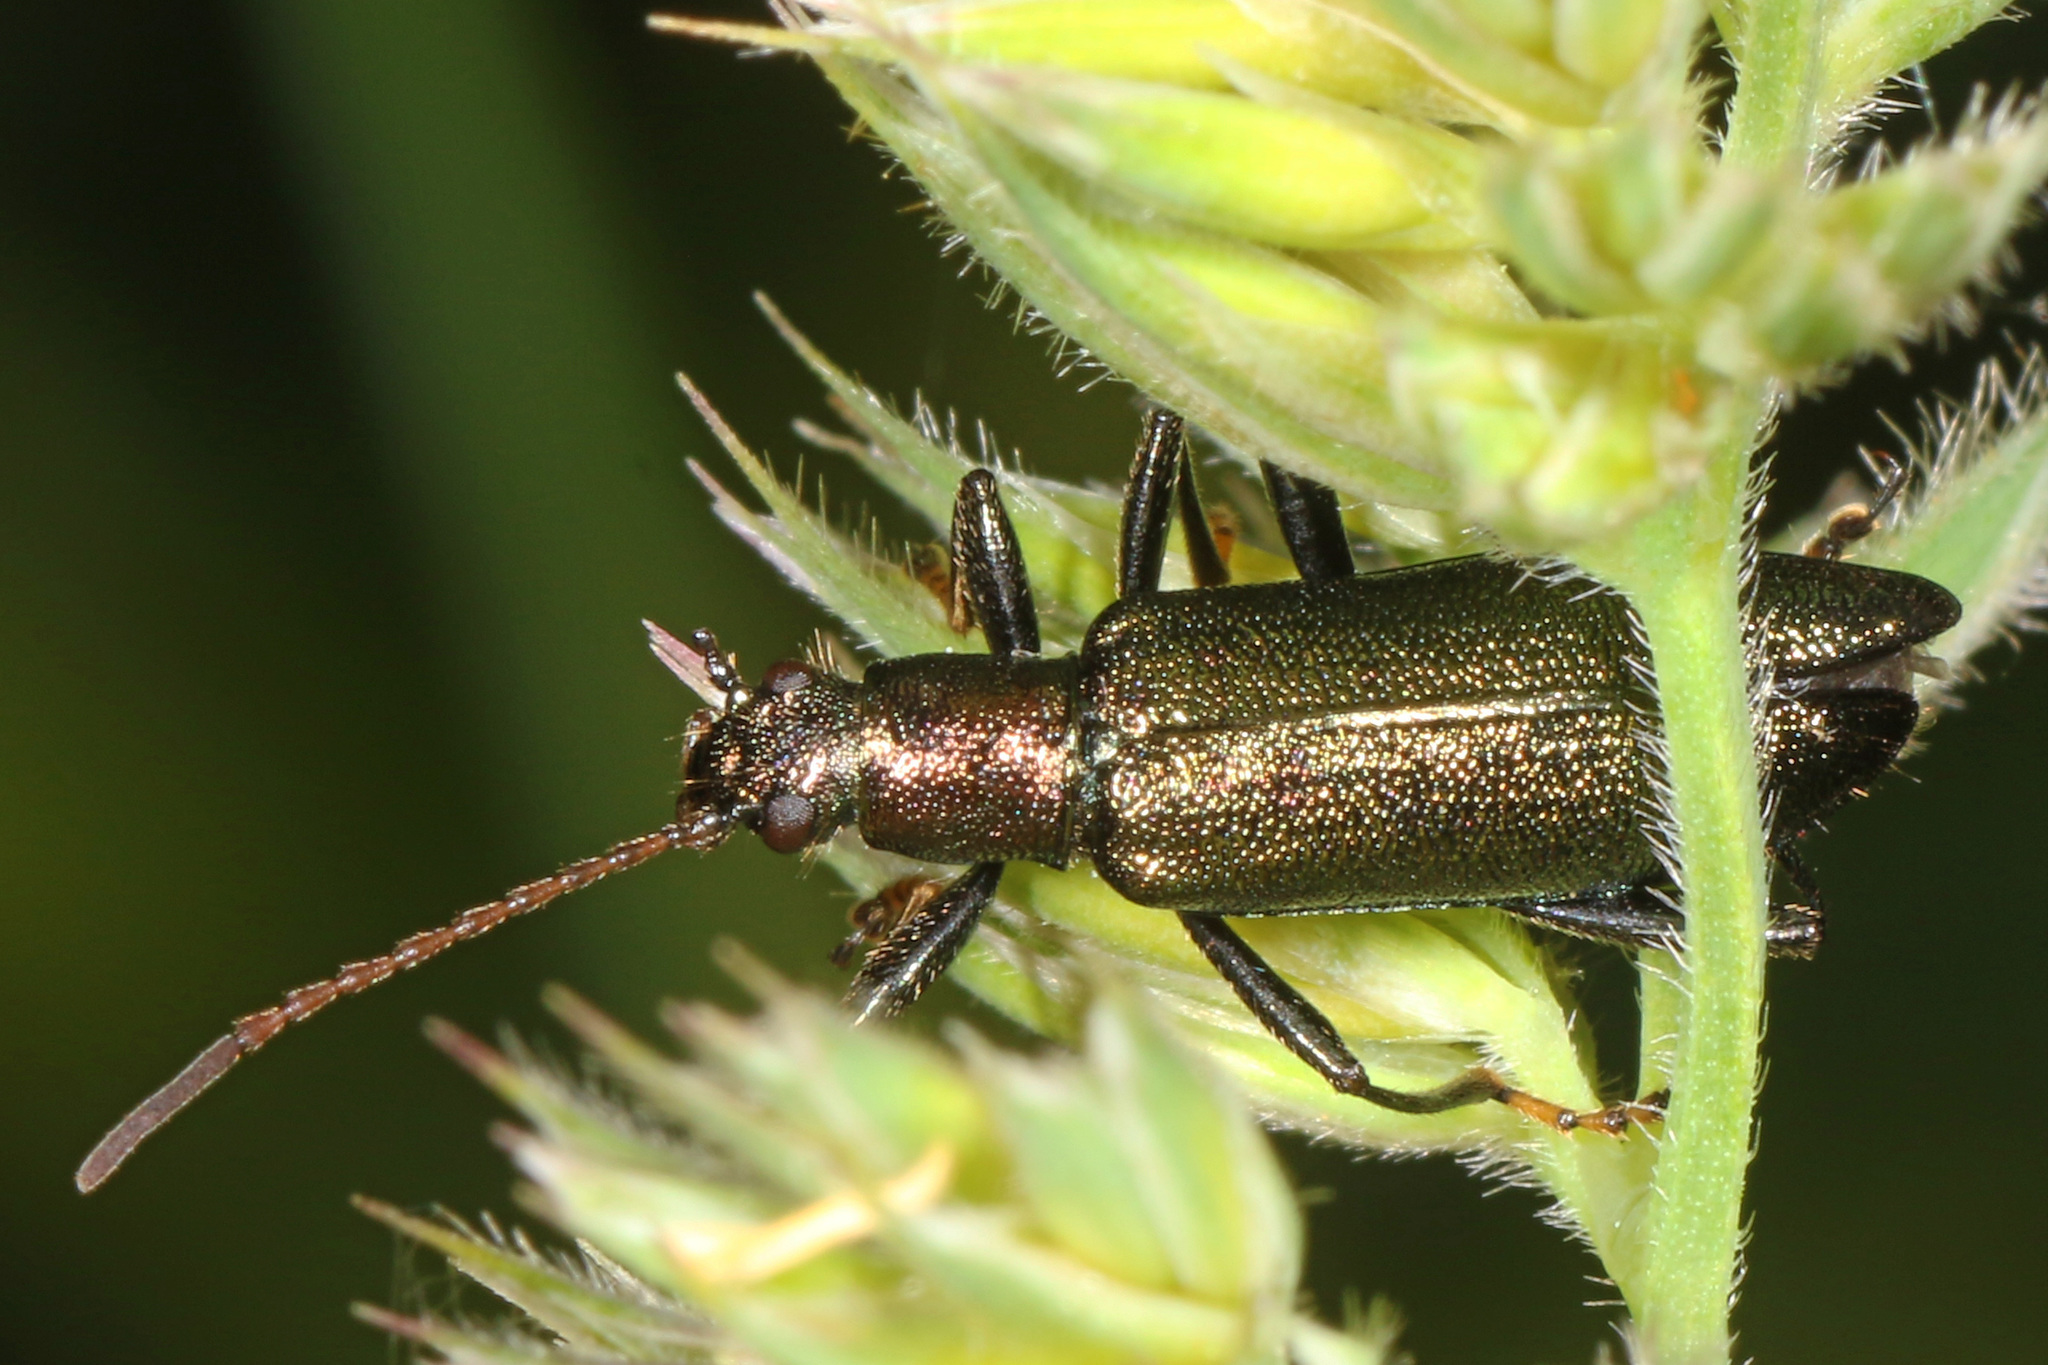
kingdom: Animalia
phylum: Arthropoda
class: Insecta
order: Coleoptera
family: Tenebrionidae
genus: Arthromacra
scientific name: Arthromacra aenea
